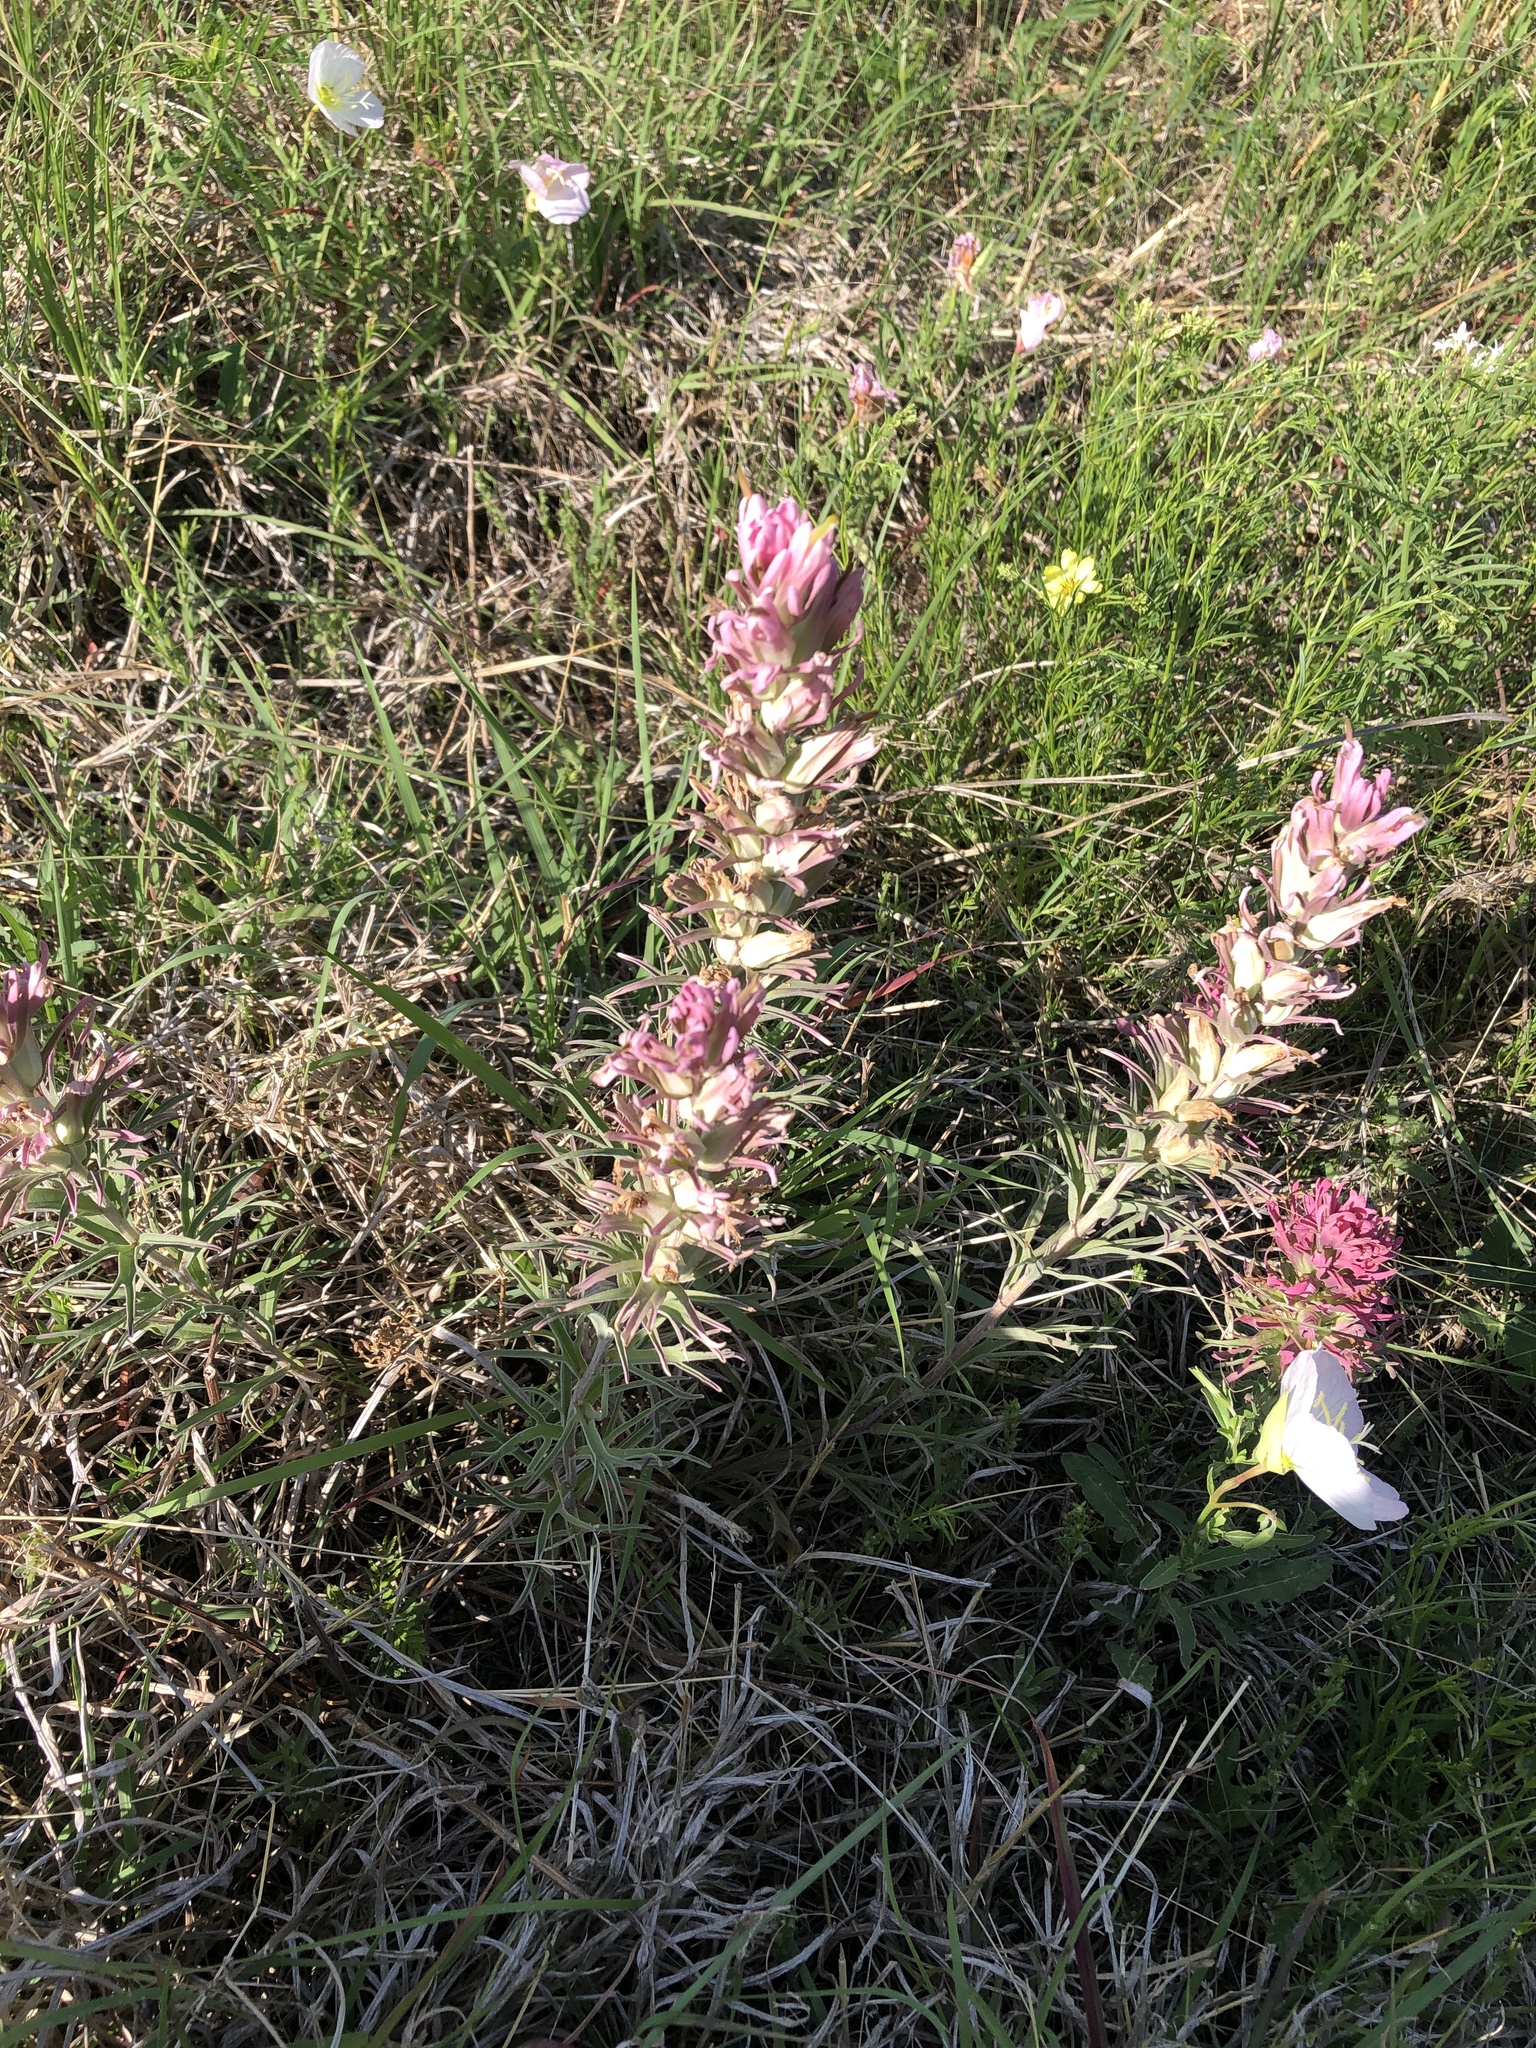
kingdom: Plantae
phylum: Tracheophyta
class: Magnoliopsida
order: Lamiales
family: Orobanchaceae
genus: Castilleja
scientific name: Castilleja purpurea
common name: Plains paintbrush
